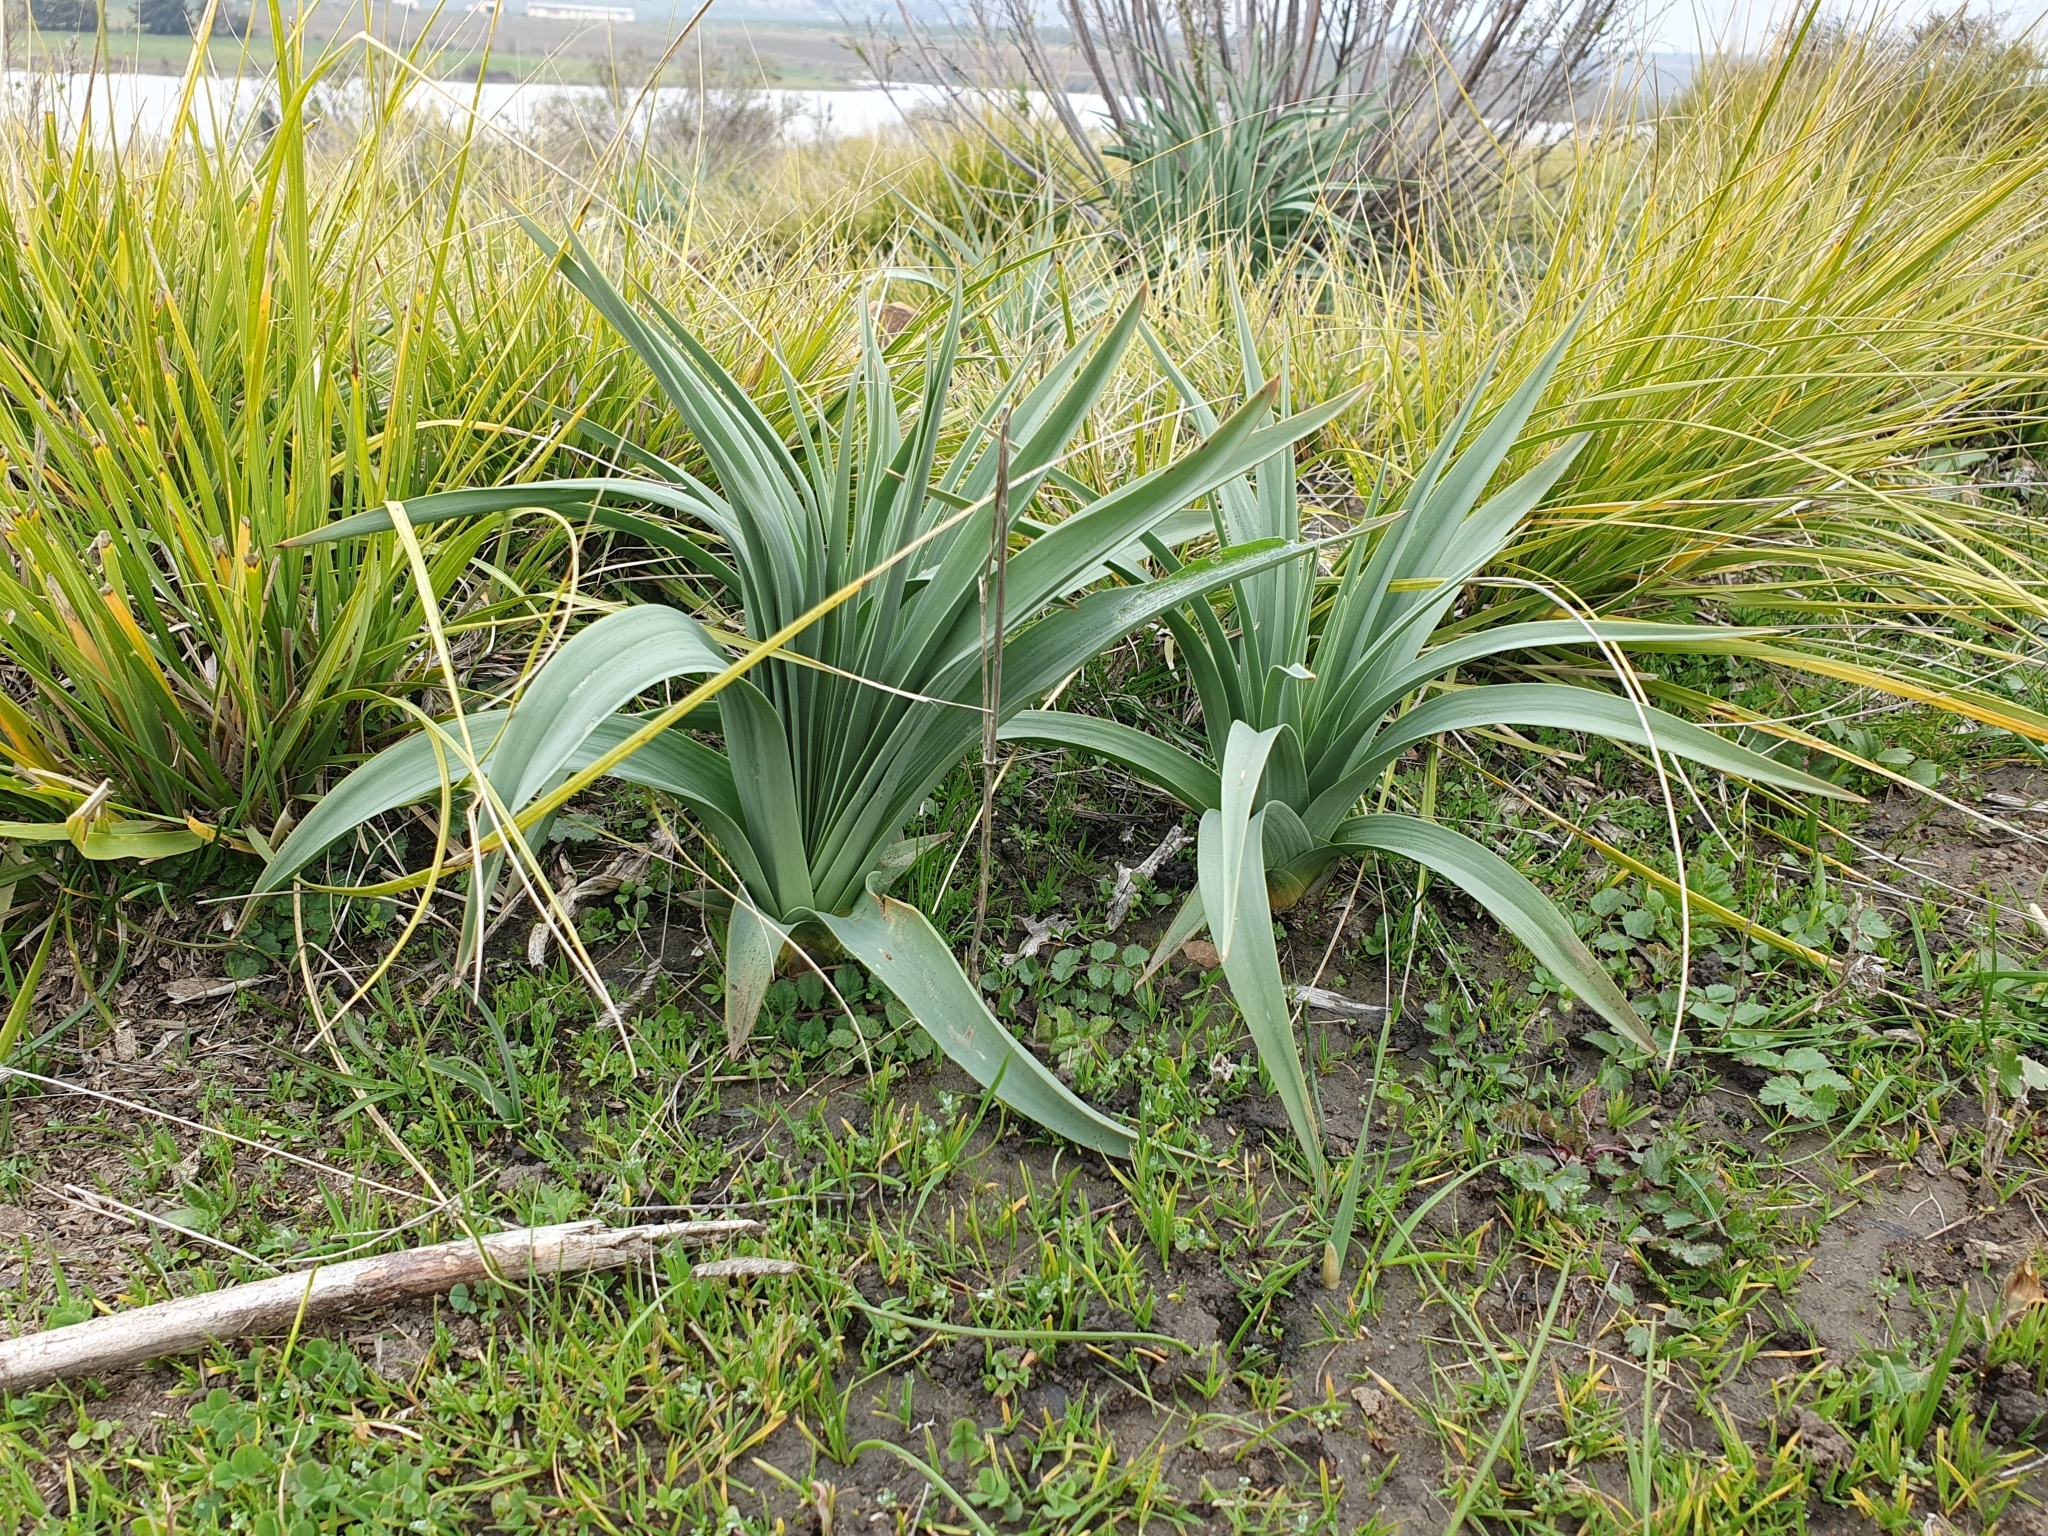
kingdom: Plantae
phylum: Tracheophyta
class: Liliopsida
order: Asparagales
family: Asphodelaceae
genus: Asphodelus
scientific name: Asphodelus ramosus
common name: Silverrod
